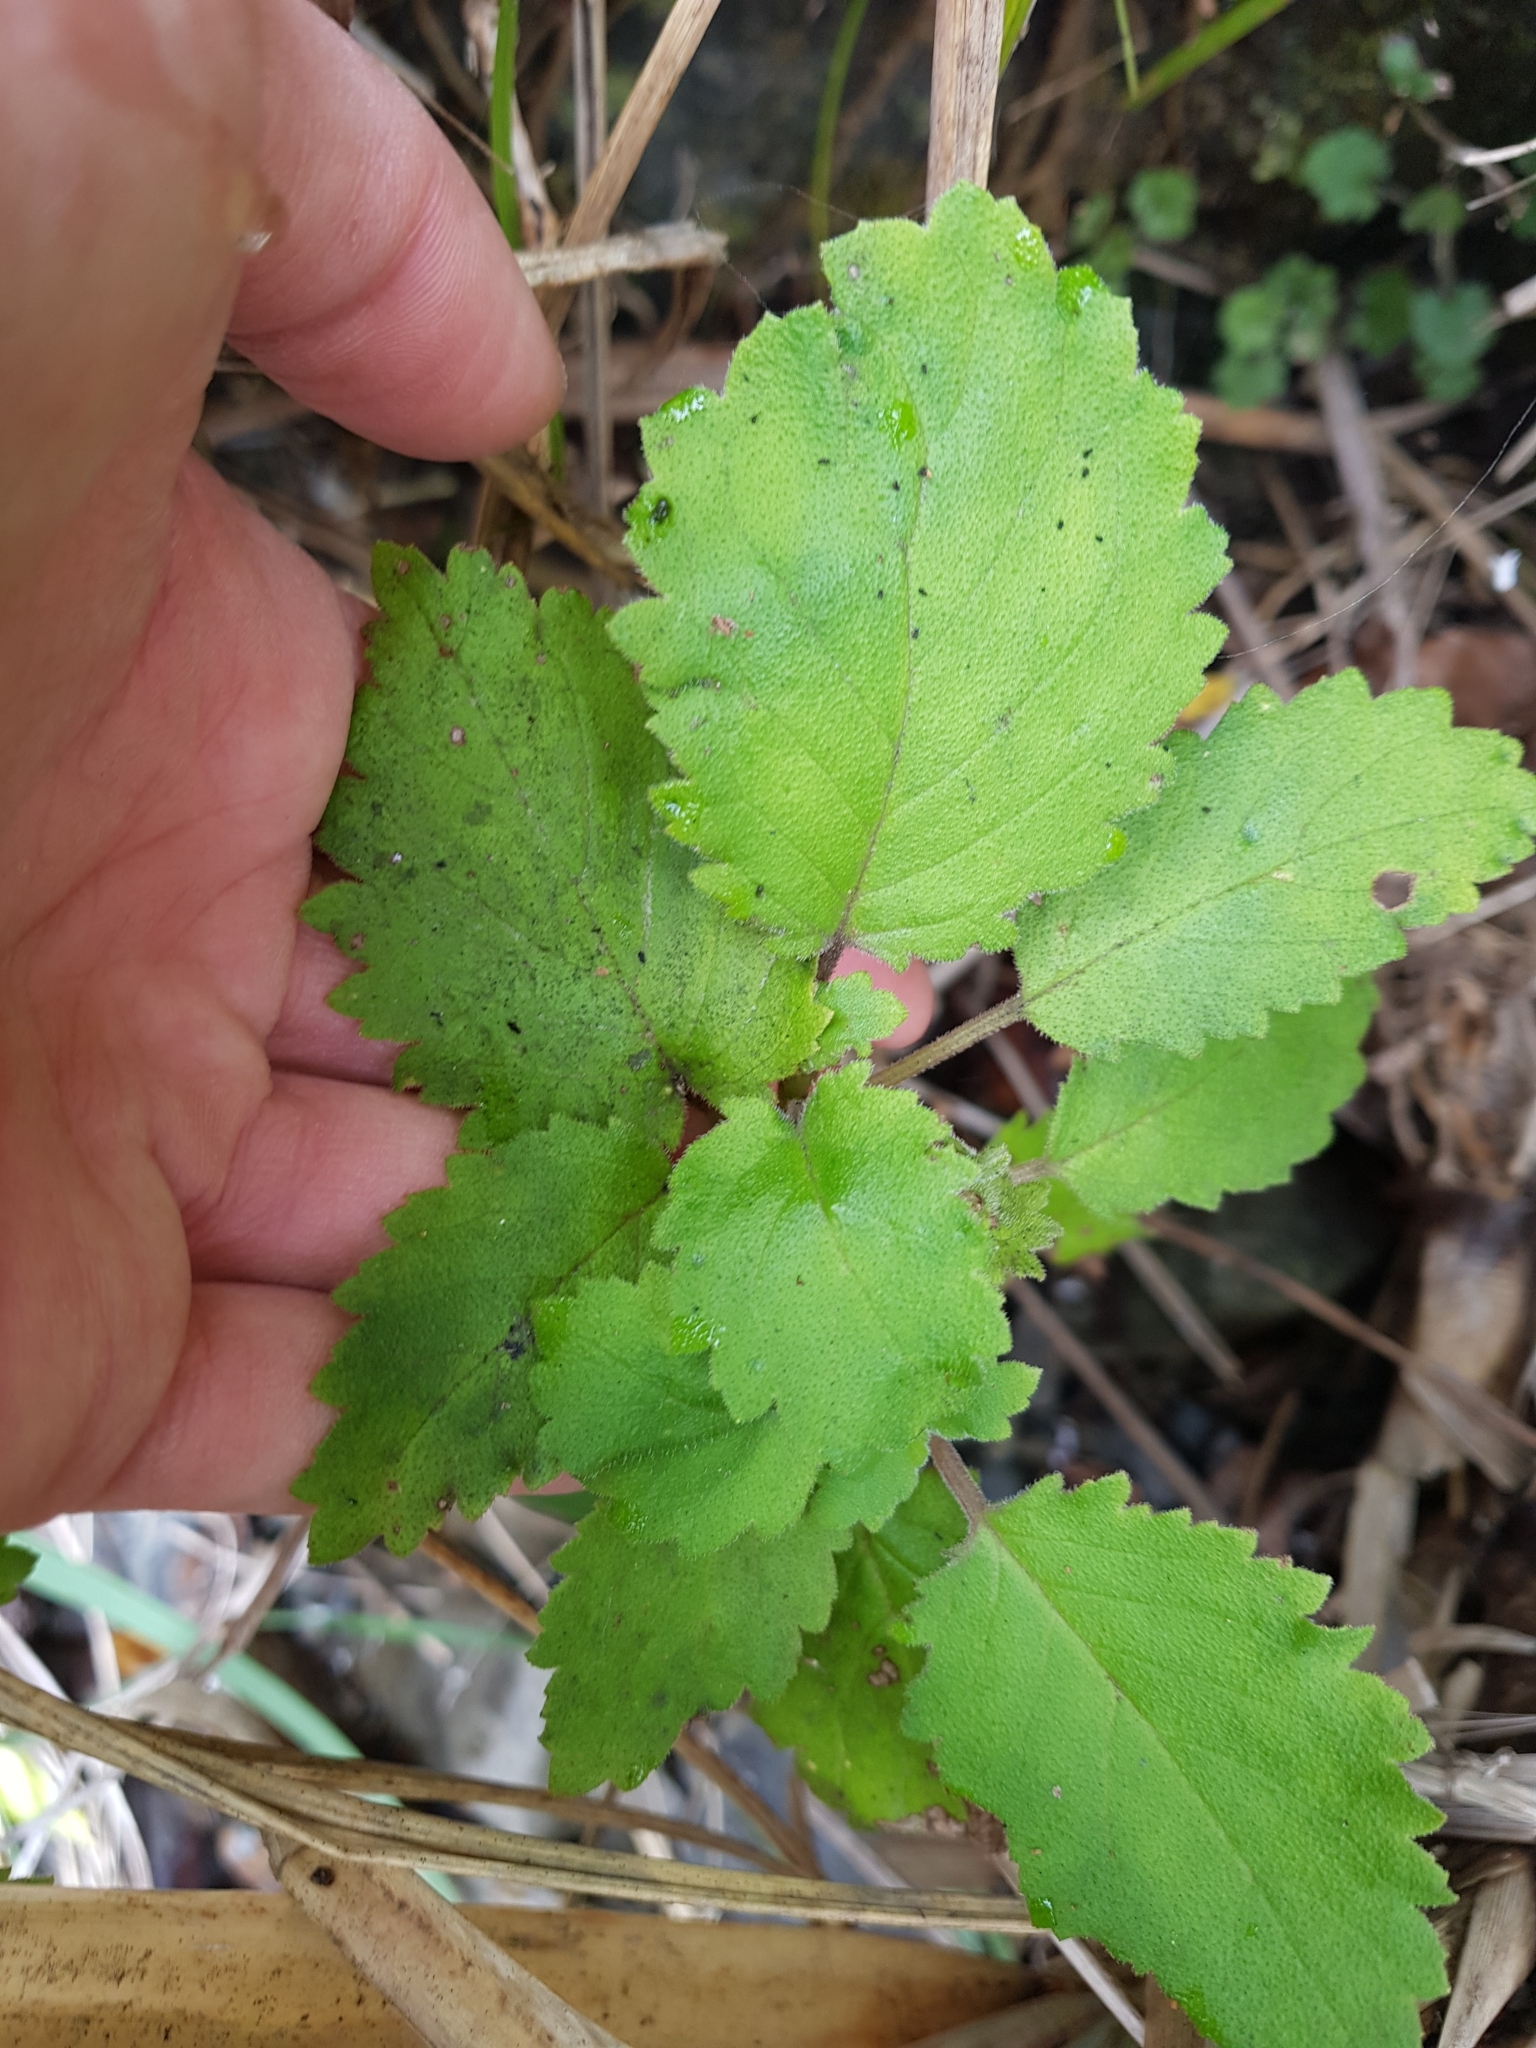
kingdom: Plantae
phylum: Tracheophyta
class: Magnoliopsida
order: Lamiales
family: Calceolariaceae
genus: Jovellana
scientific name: Jovellana sinclairii
